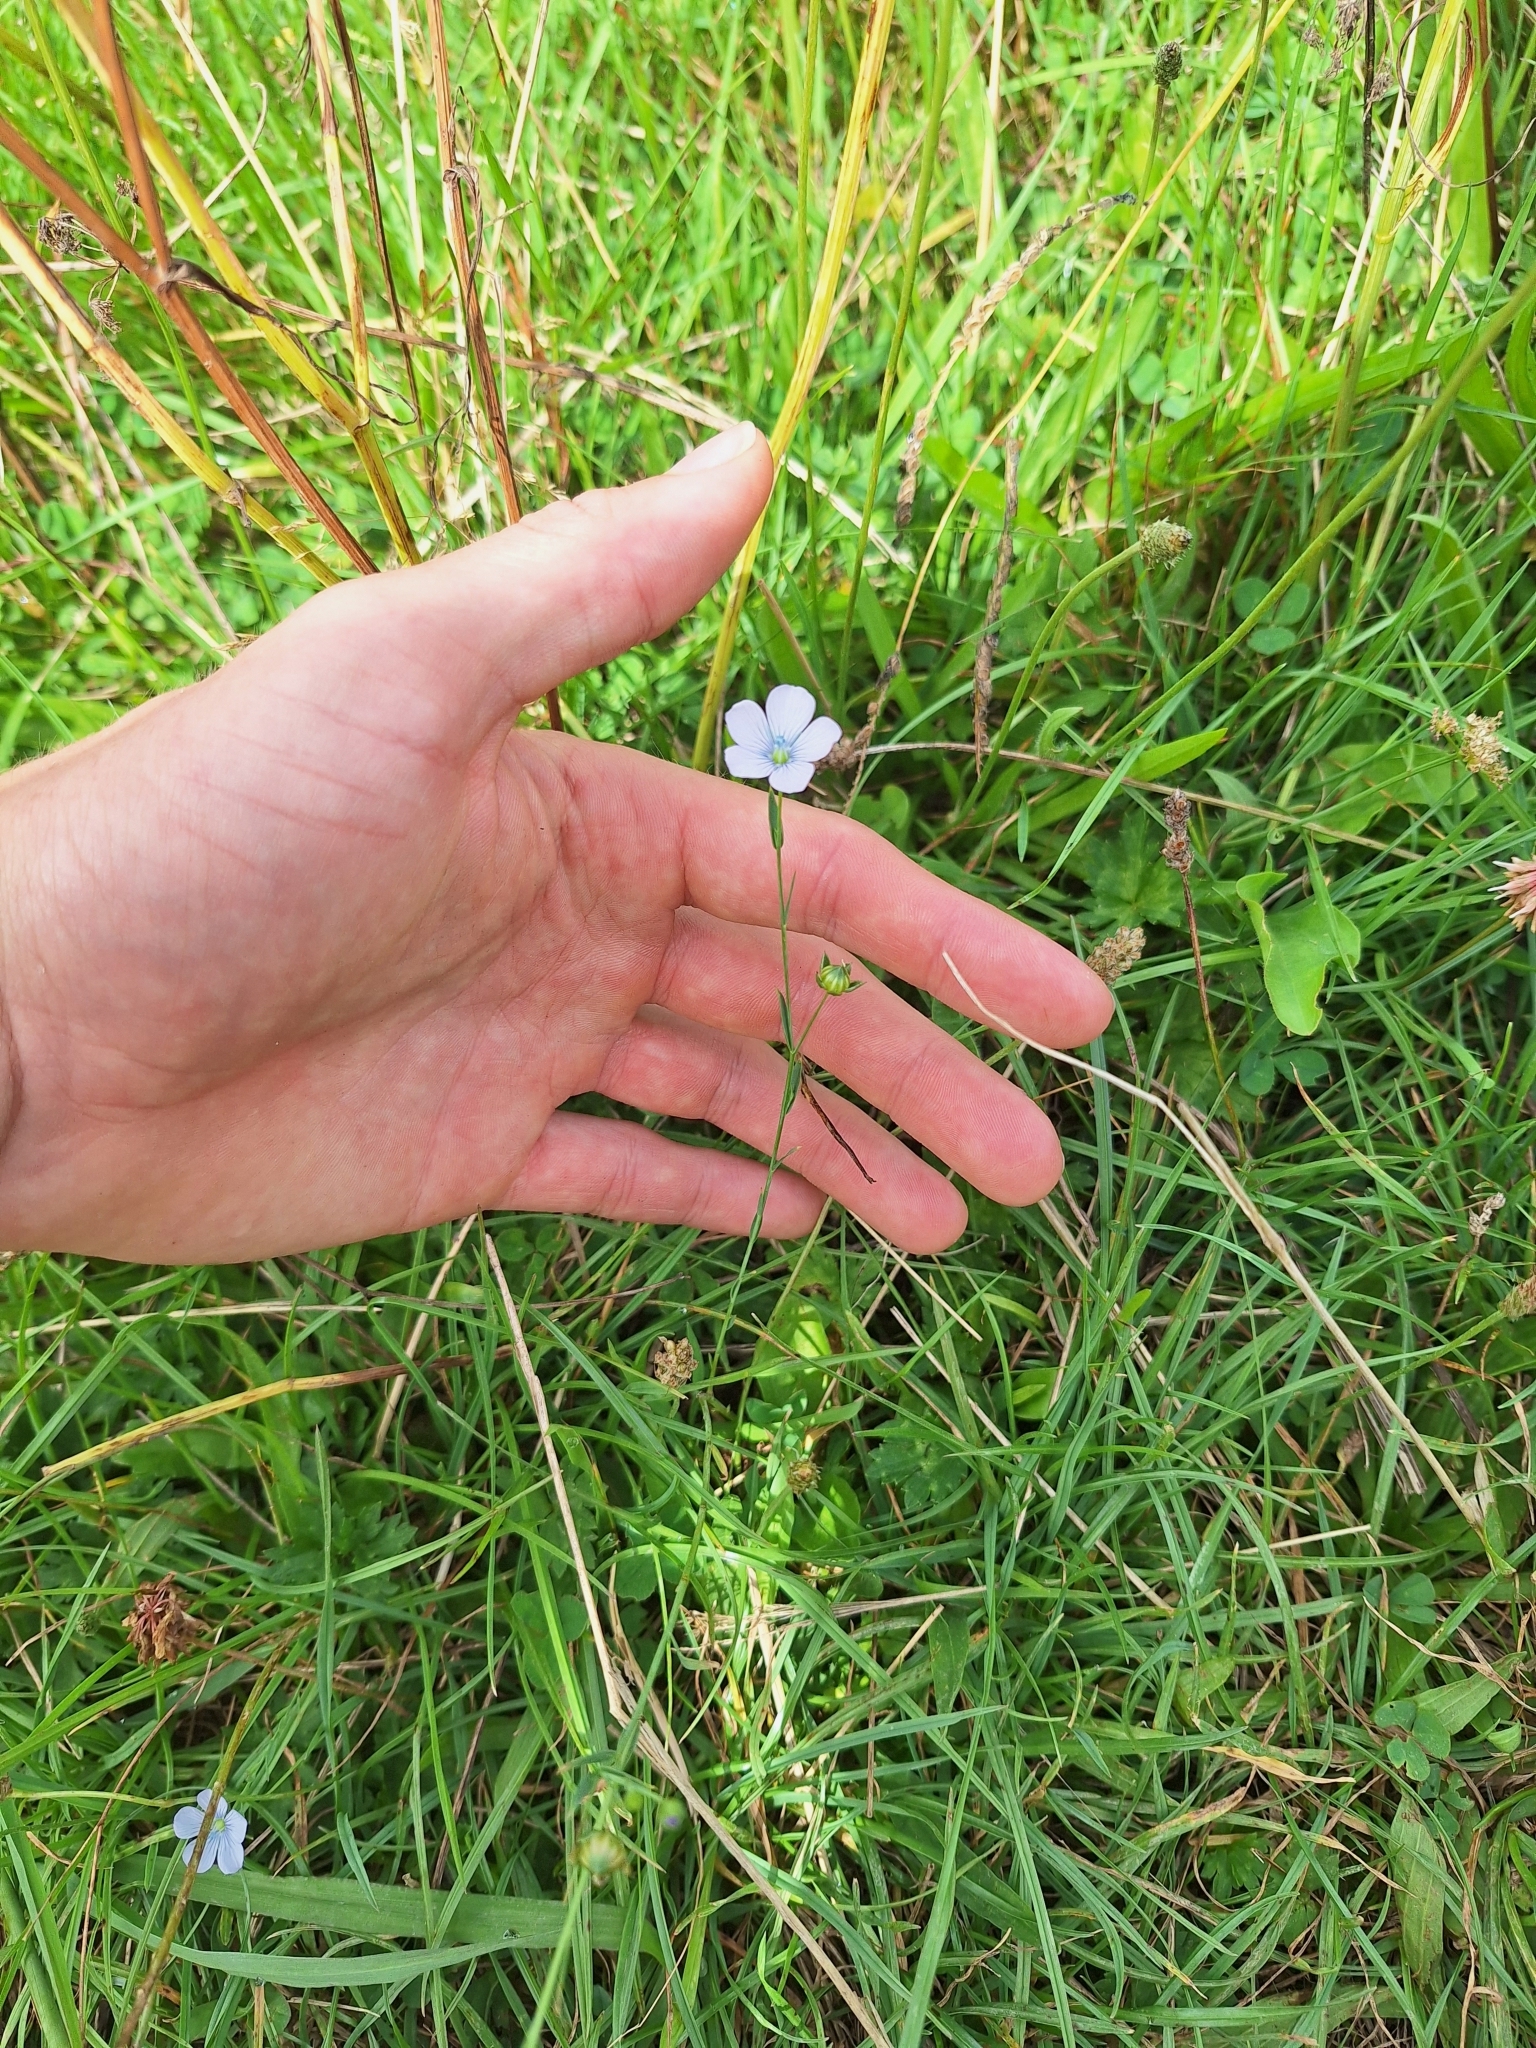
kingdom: Plantae
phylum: Tracheophyta
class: Magnoliopsida
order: Malpighiales
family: Linaceae
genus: Linum
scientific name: Linum bienne
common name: Pale flax
